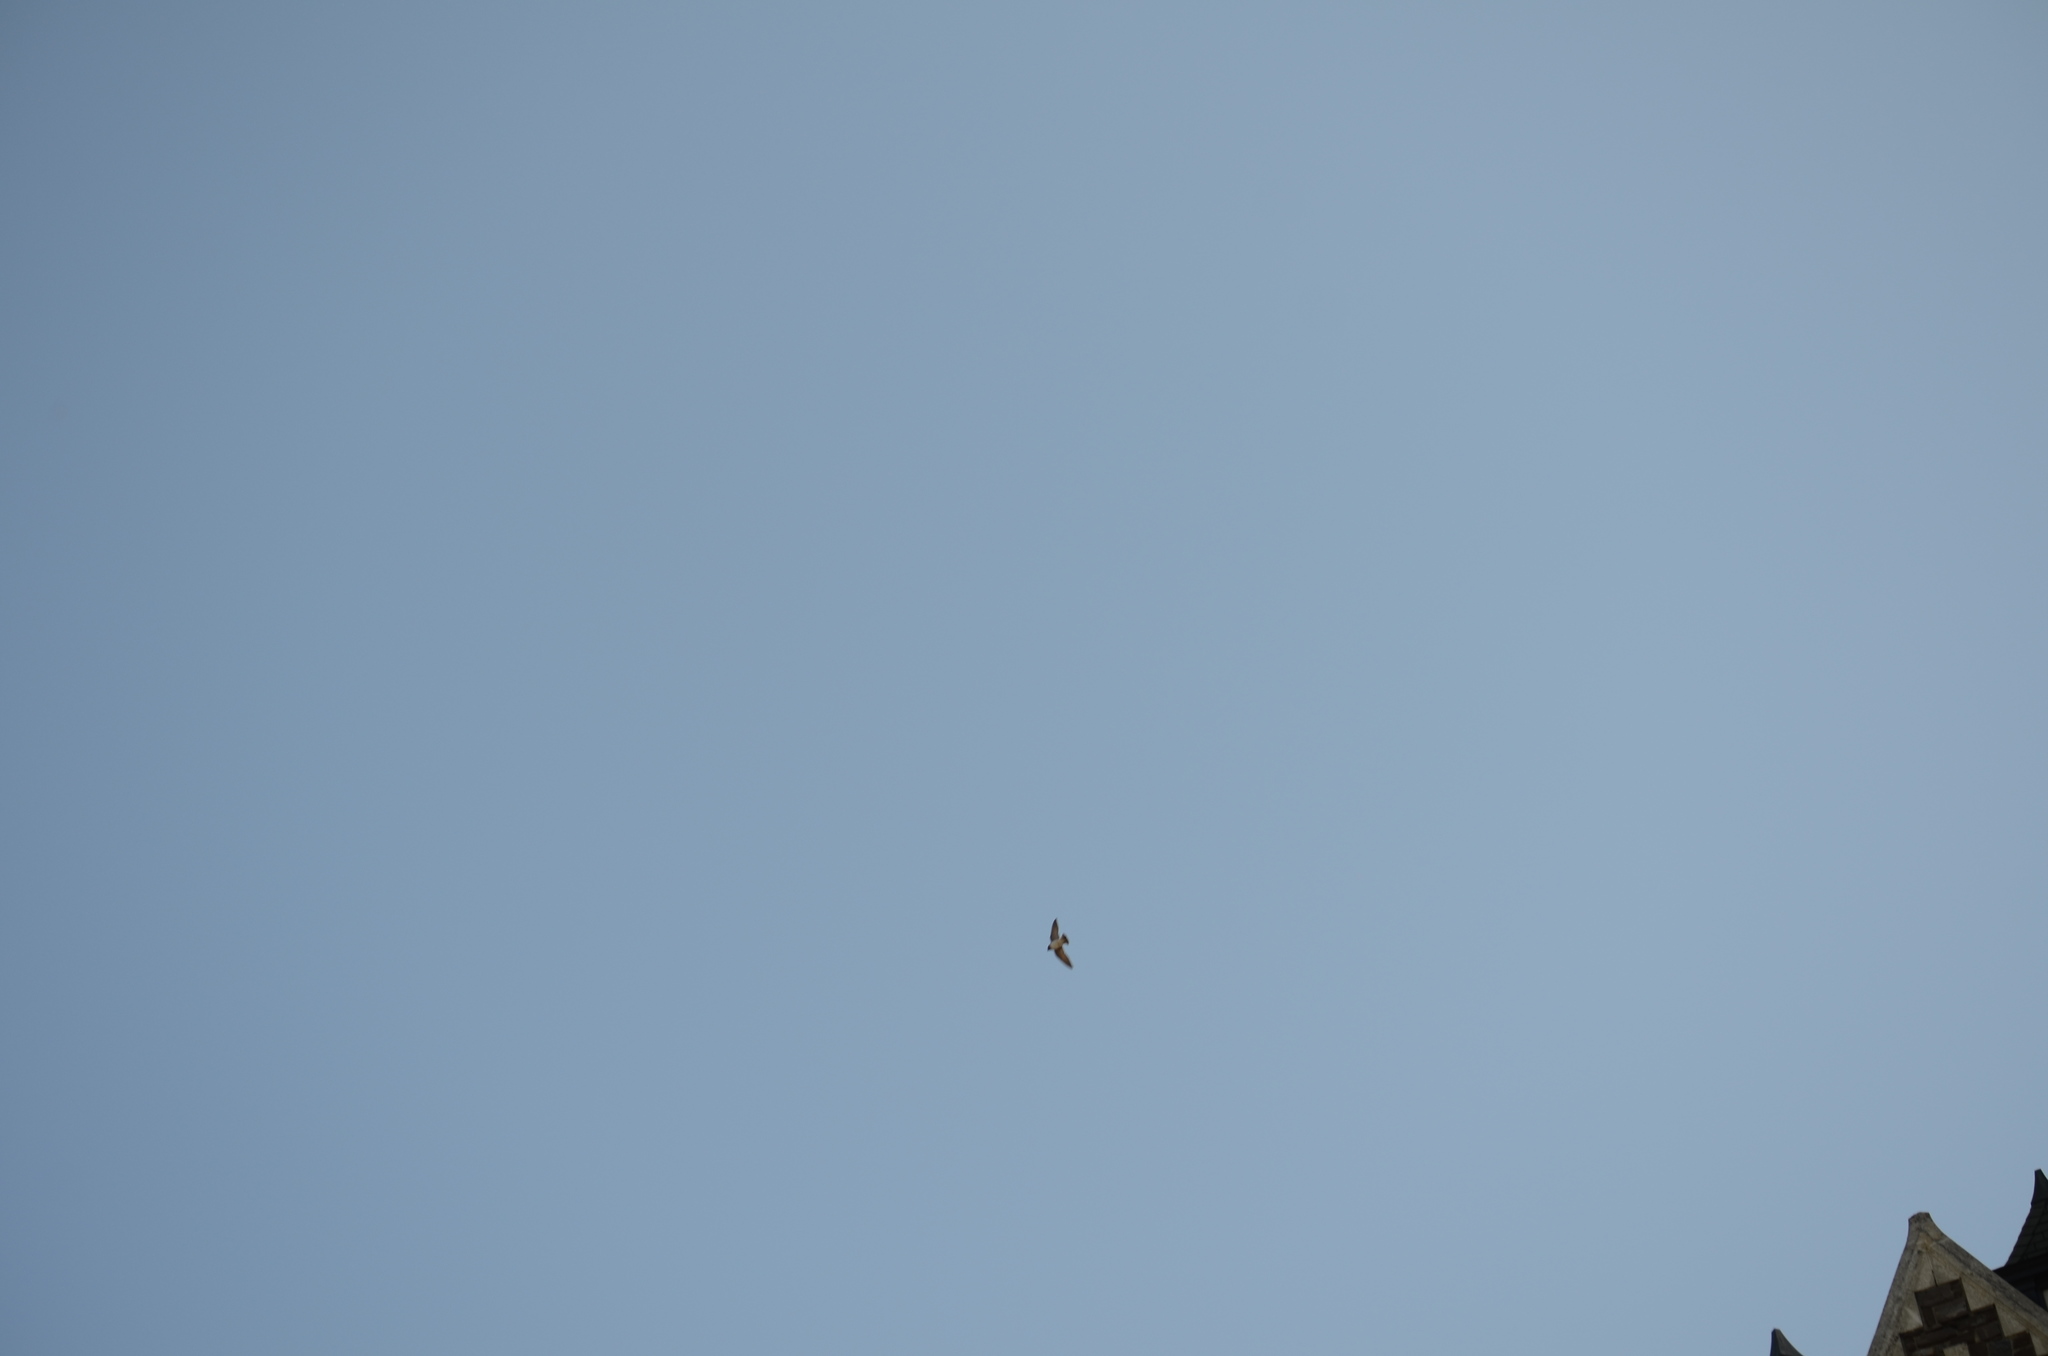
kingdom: Animalia
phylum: Chordata
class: Aves
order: Passeriformes
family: Hirundinidae
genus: Riparia
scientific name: Riparia riparia
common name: Sand martin
